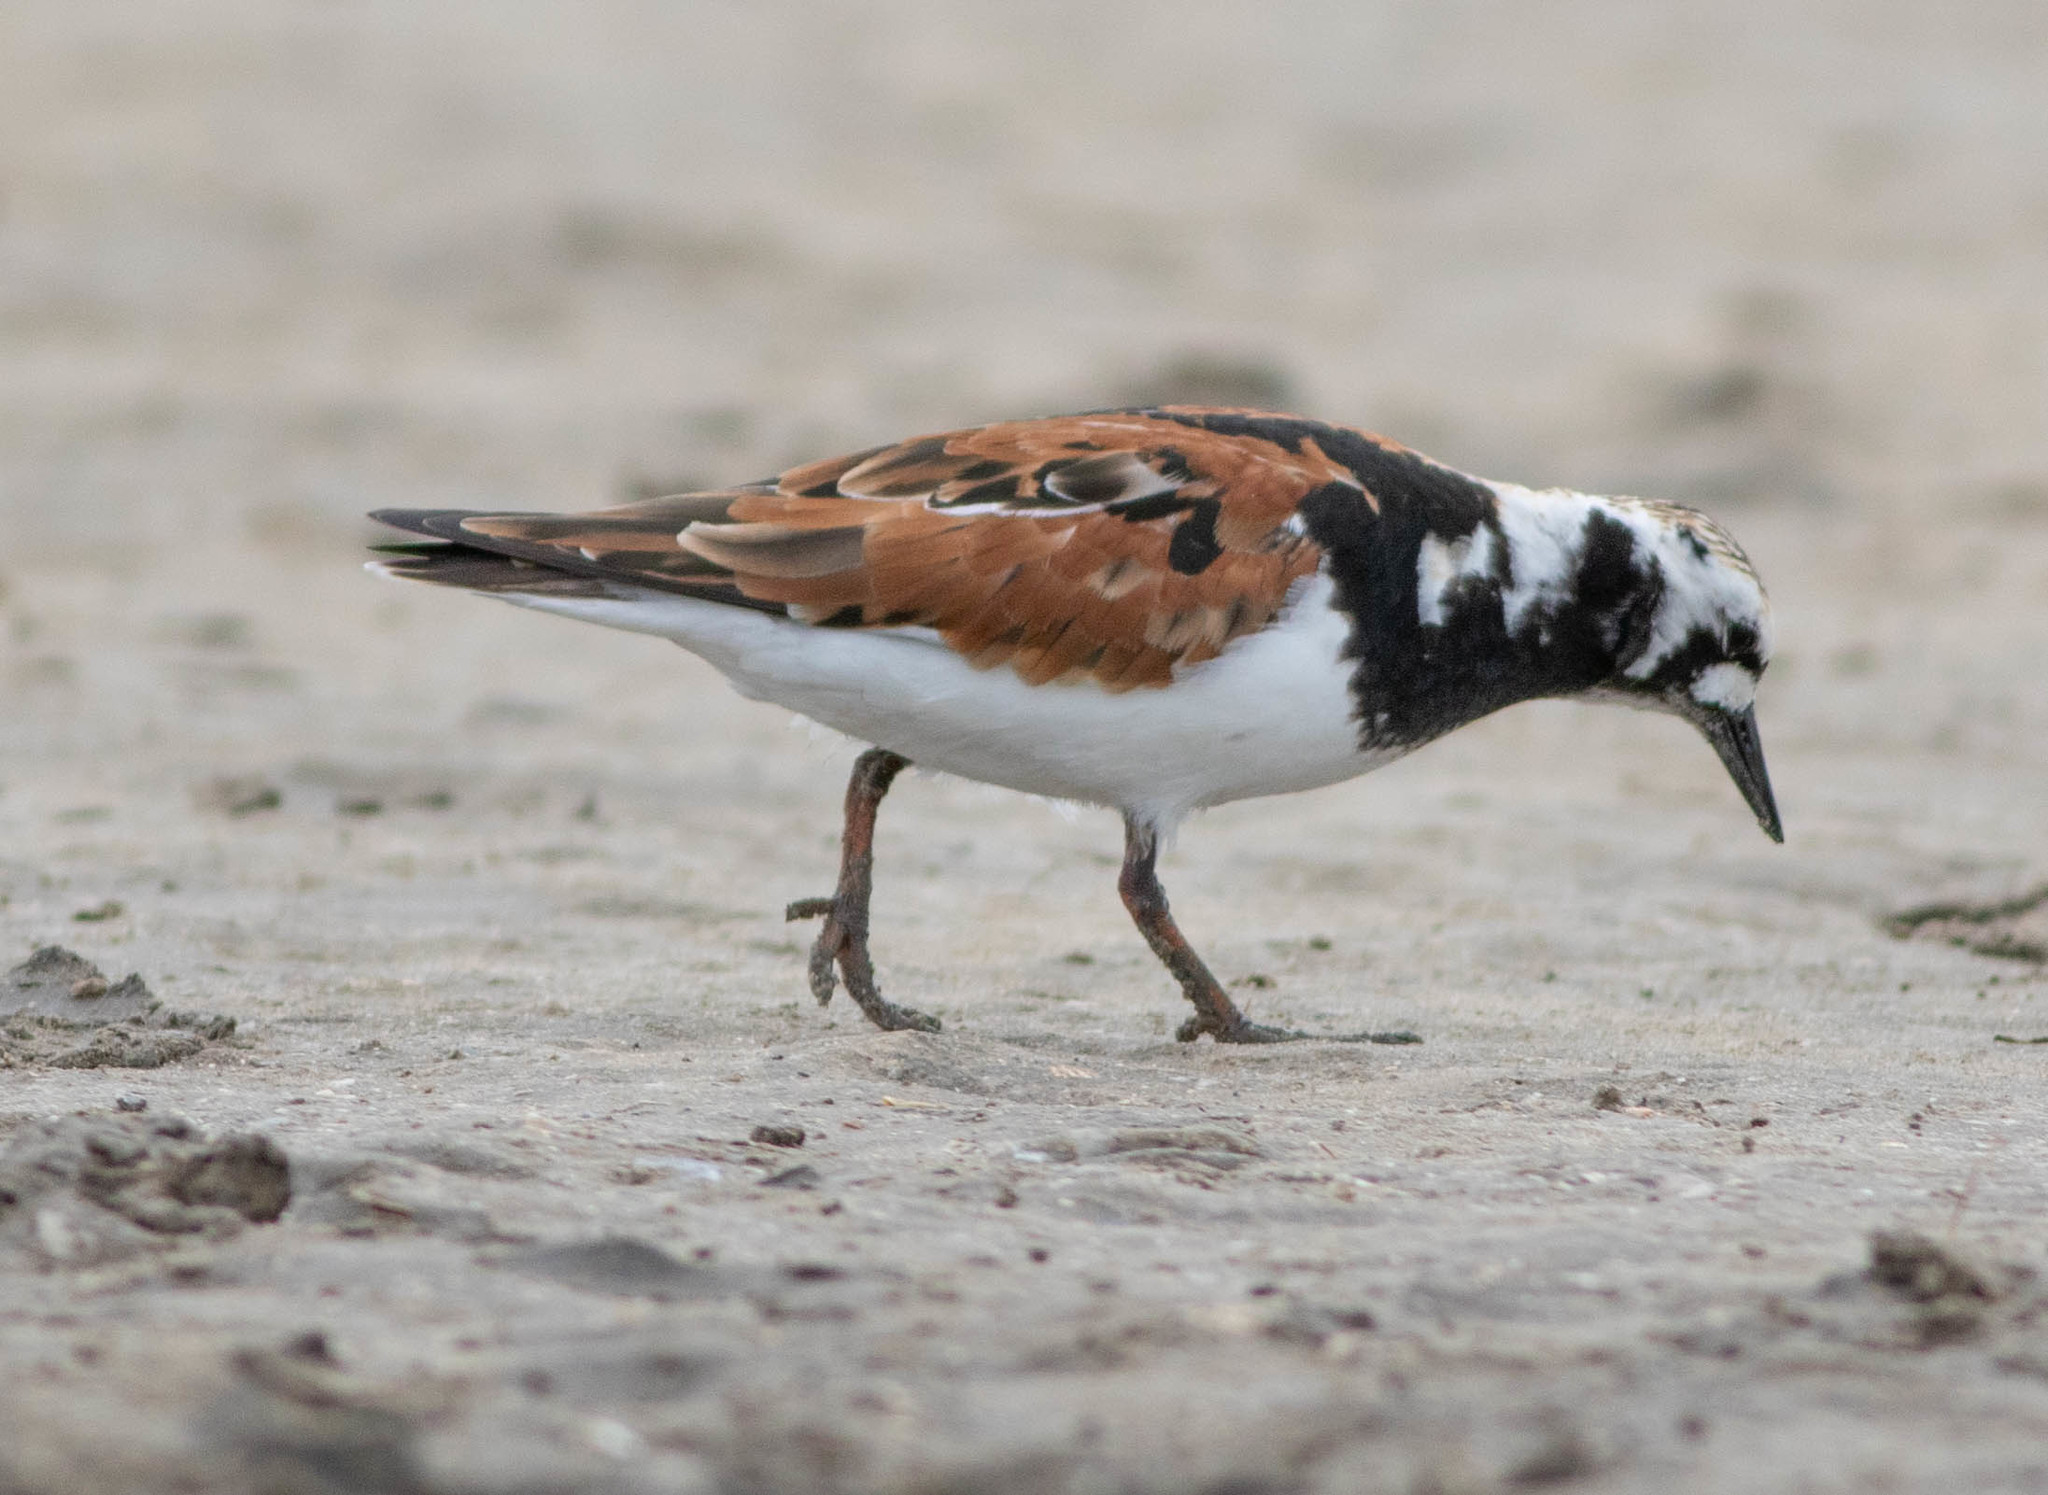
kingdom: Animalia
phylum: Chordata
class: Aves
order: Charadriiformes
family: Scolopacidae
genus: Arenaria
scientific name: Arenaria interpres
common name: Ruddy turnstone
